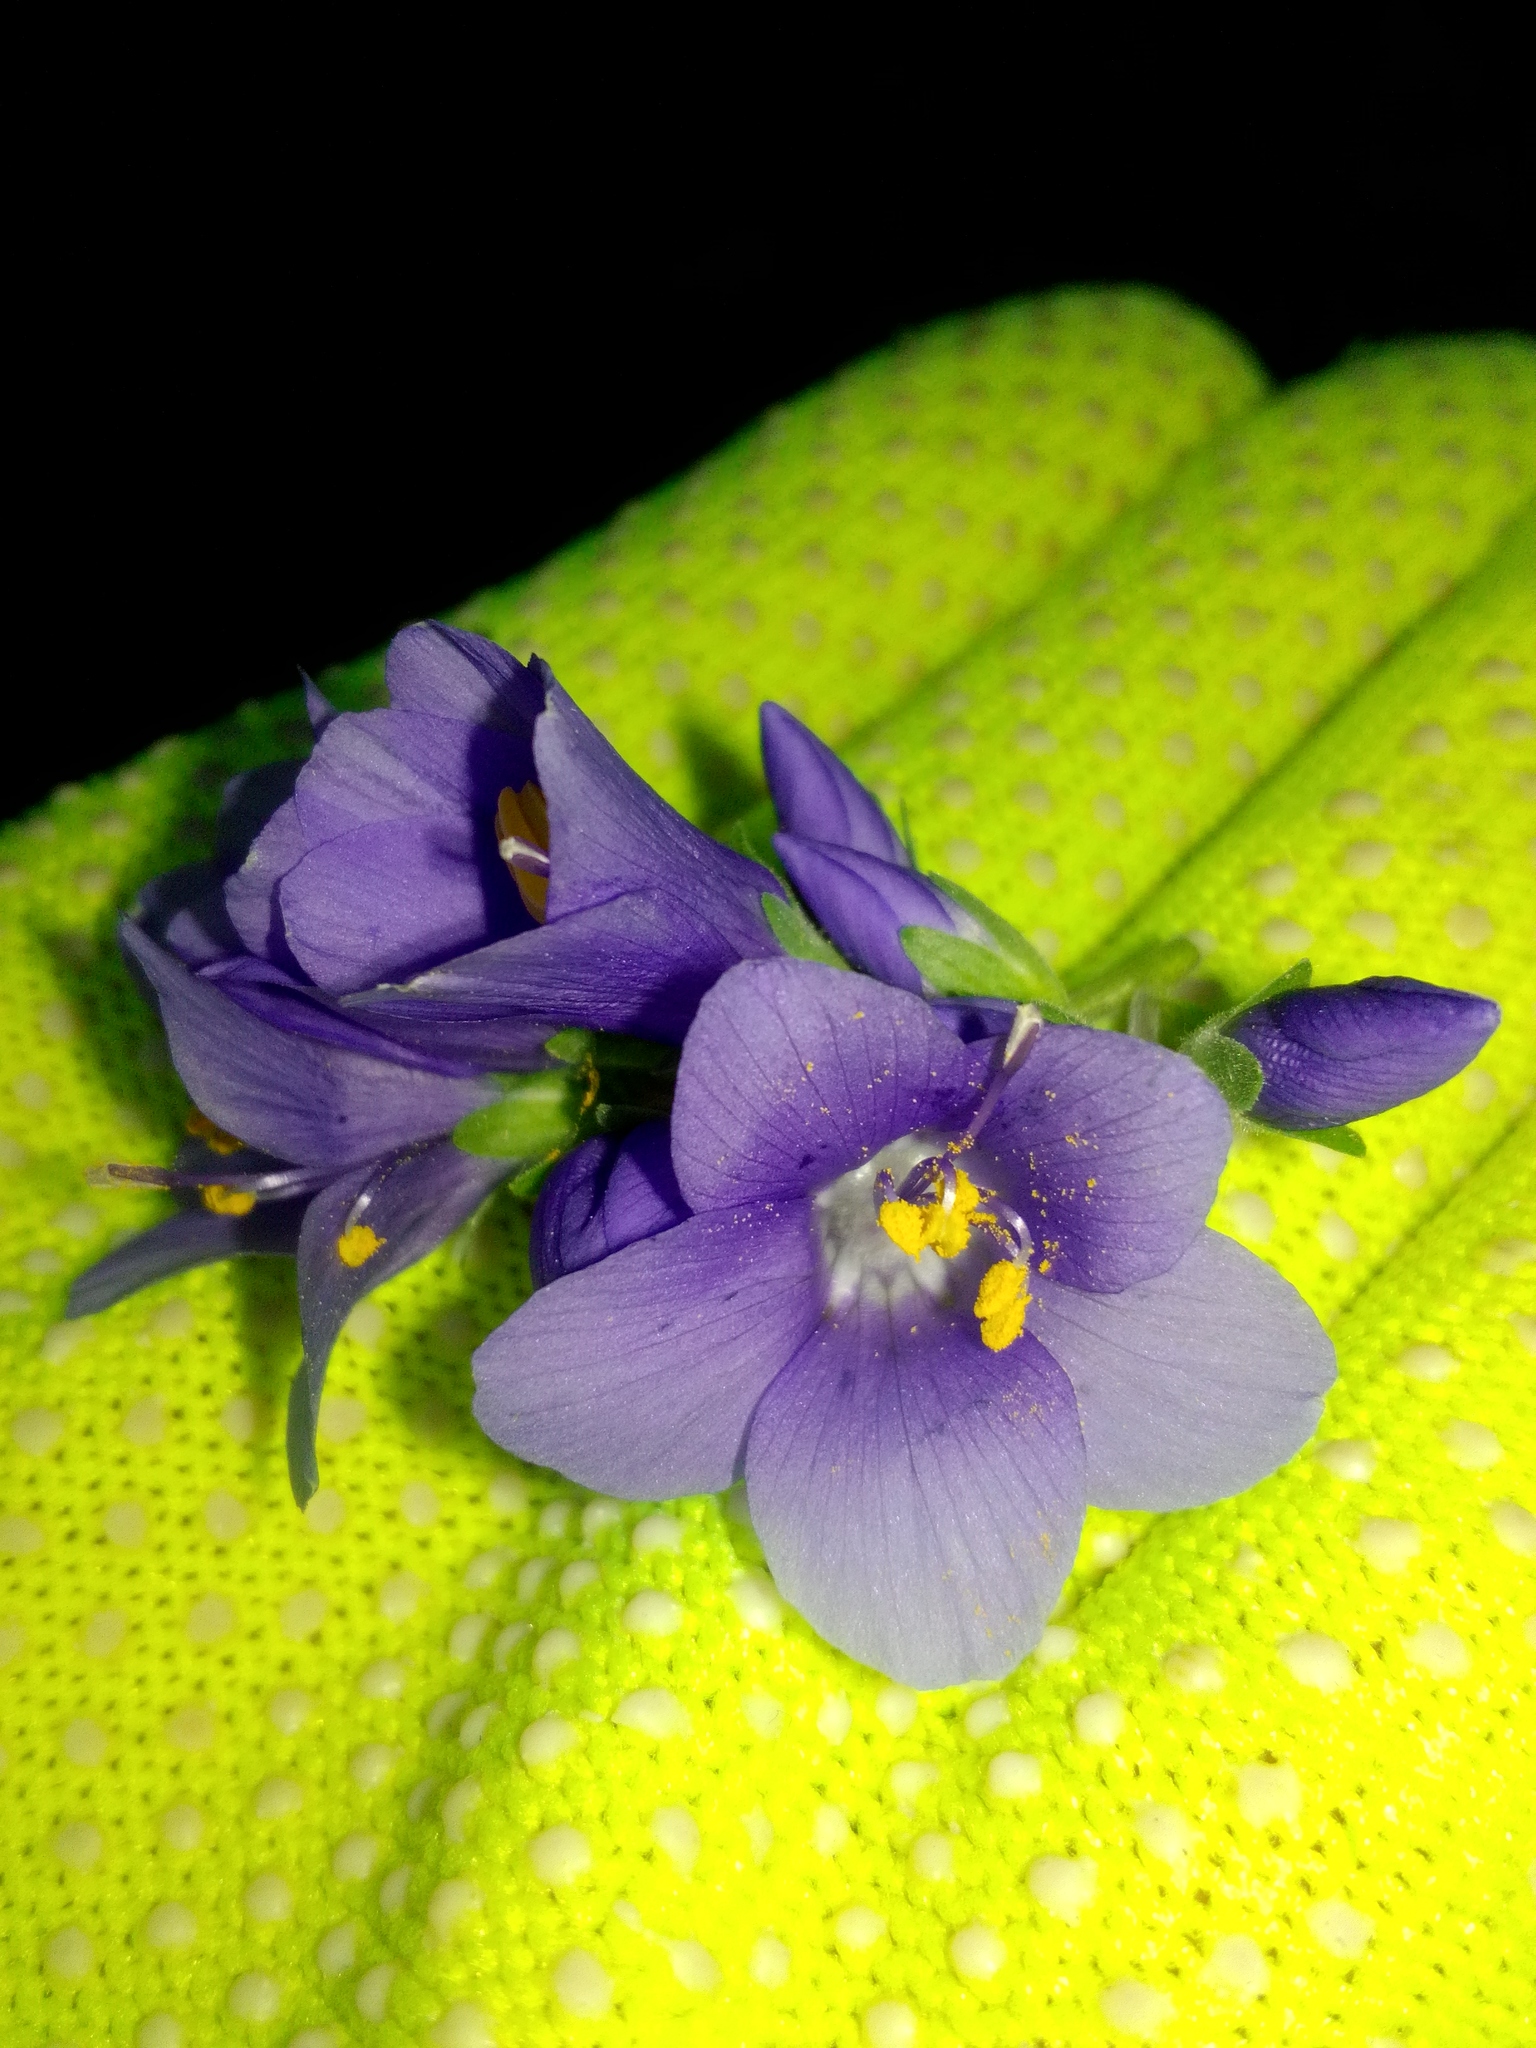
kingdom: Plantae
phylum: Tracheophyta
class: Magnoliopsida
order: Ericales
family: Polemoniaceae
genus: Polemonium
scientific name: Polemonium caeruleum
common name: Jacob's-ladder
